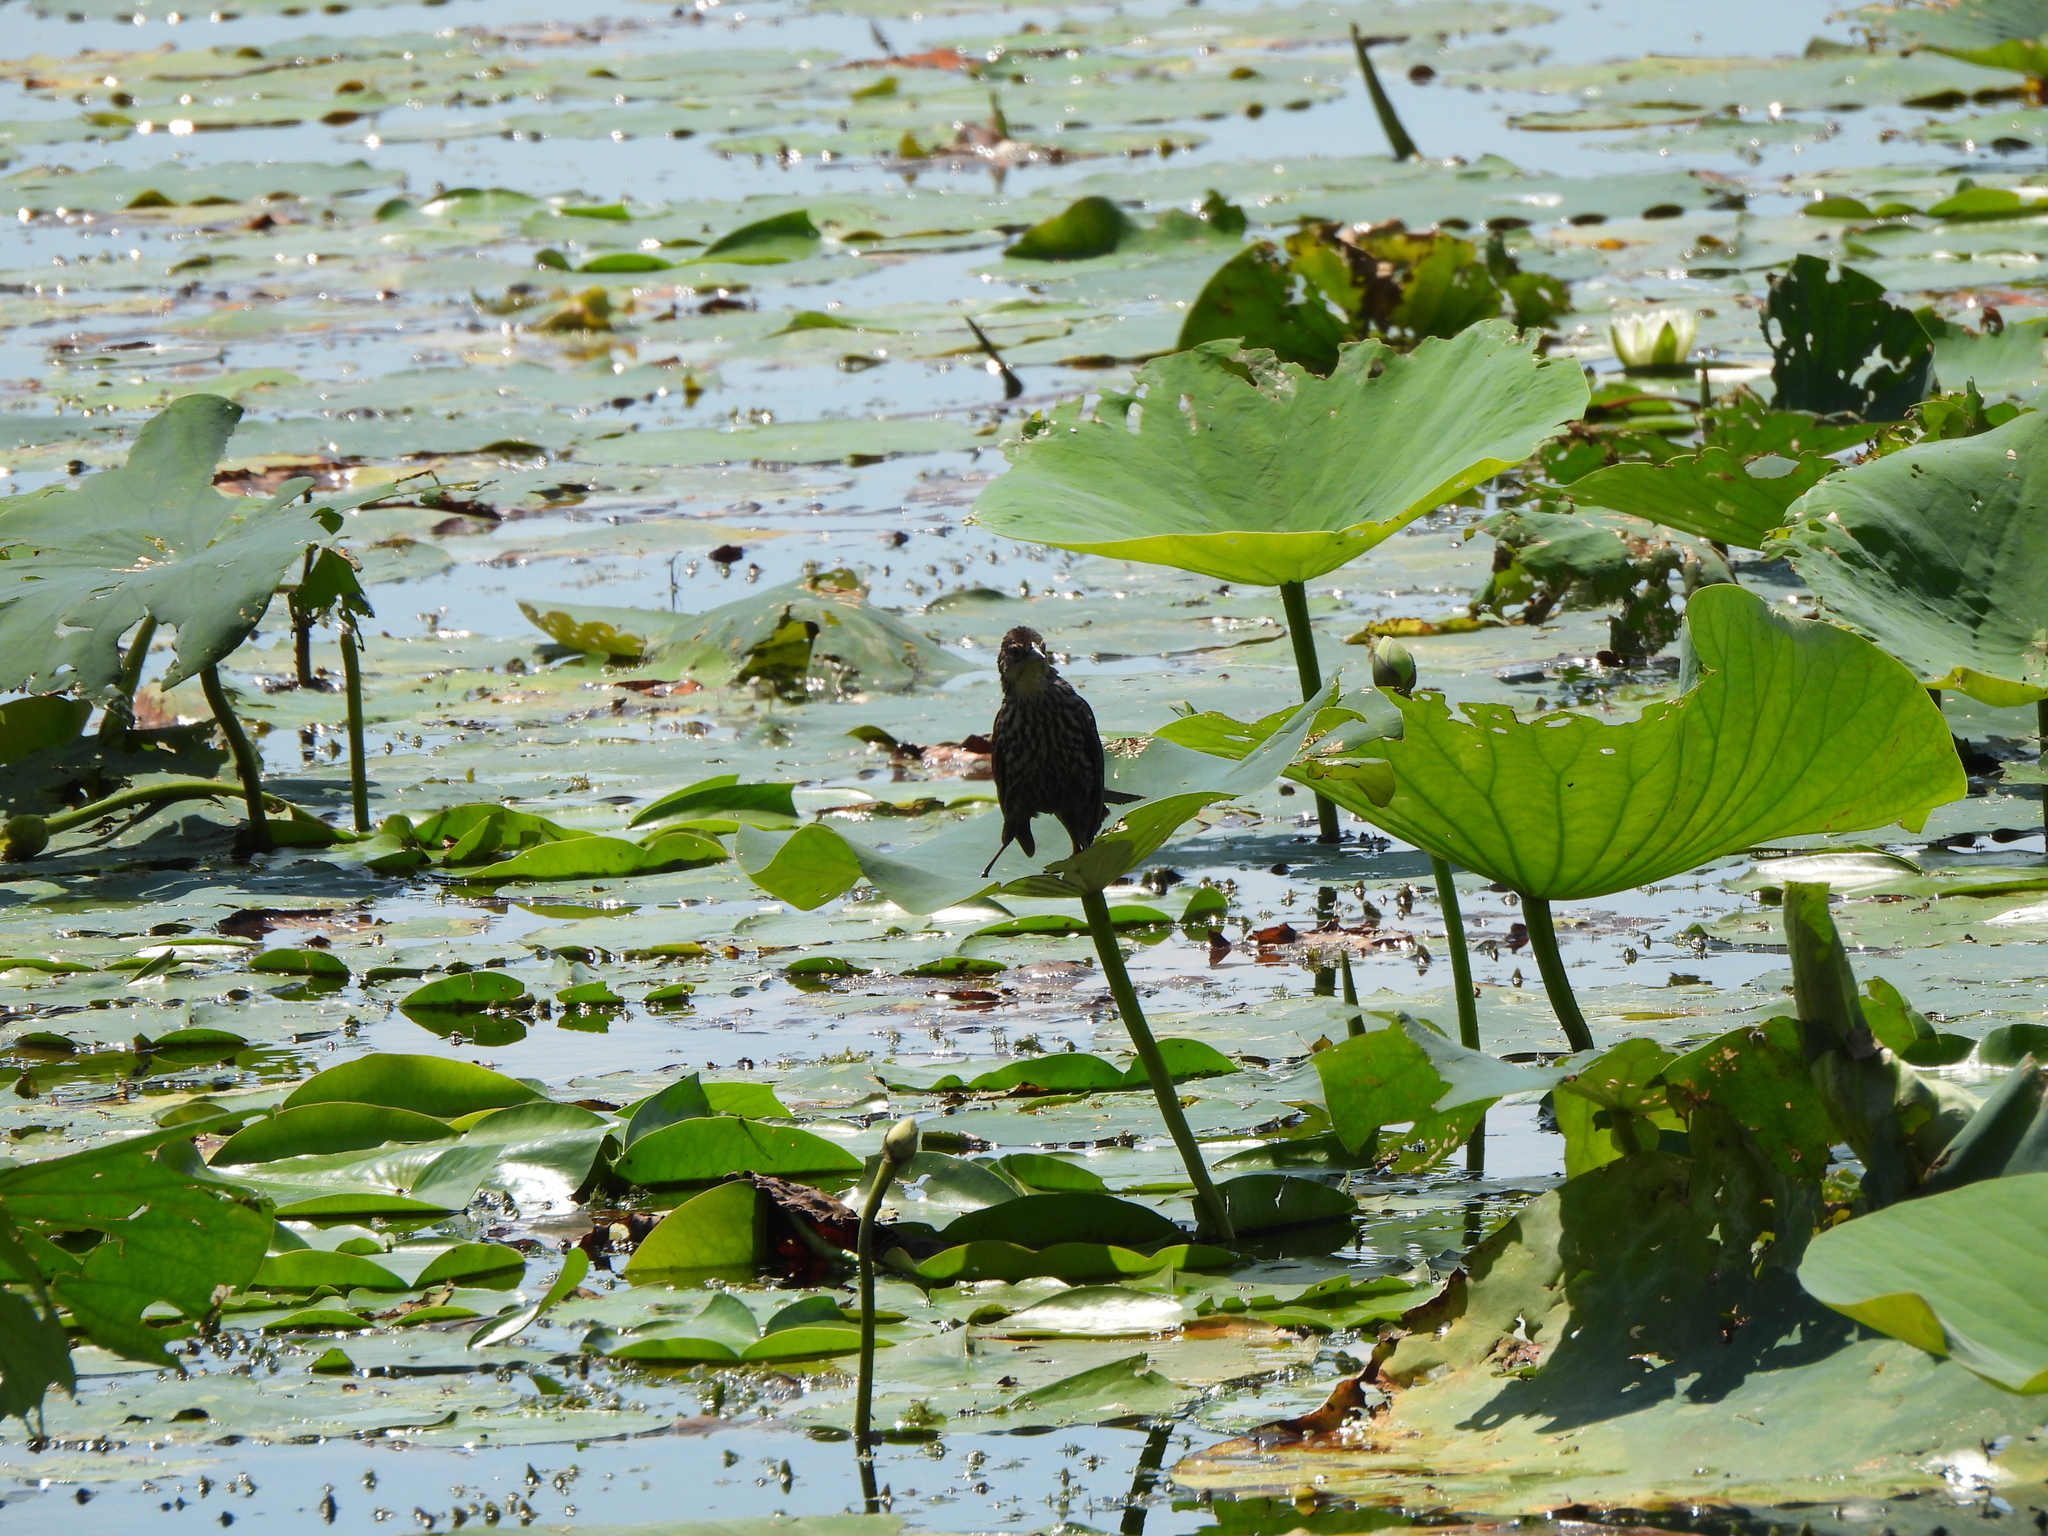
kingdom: Animalia
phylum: Chordata
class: Aves
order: Passeriformes
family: Icteridae
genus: Agelaius
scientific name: Agelaius phoeniceus
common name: Red-winged blackbird
